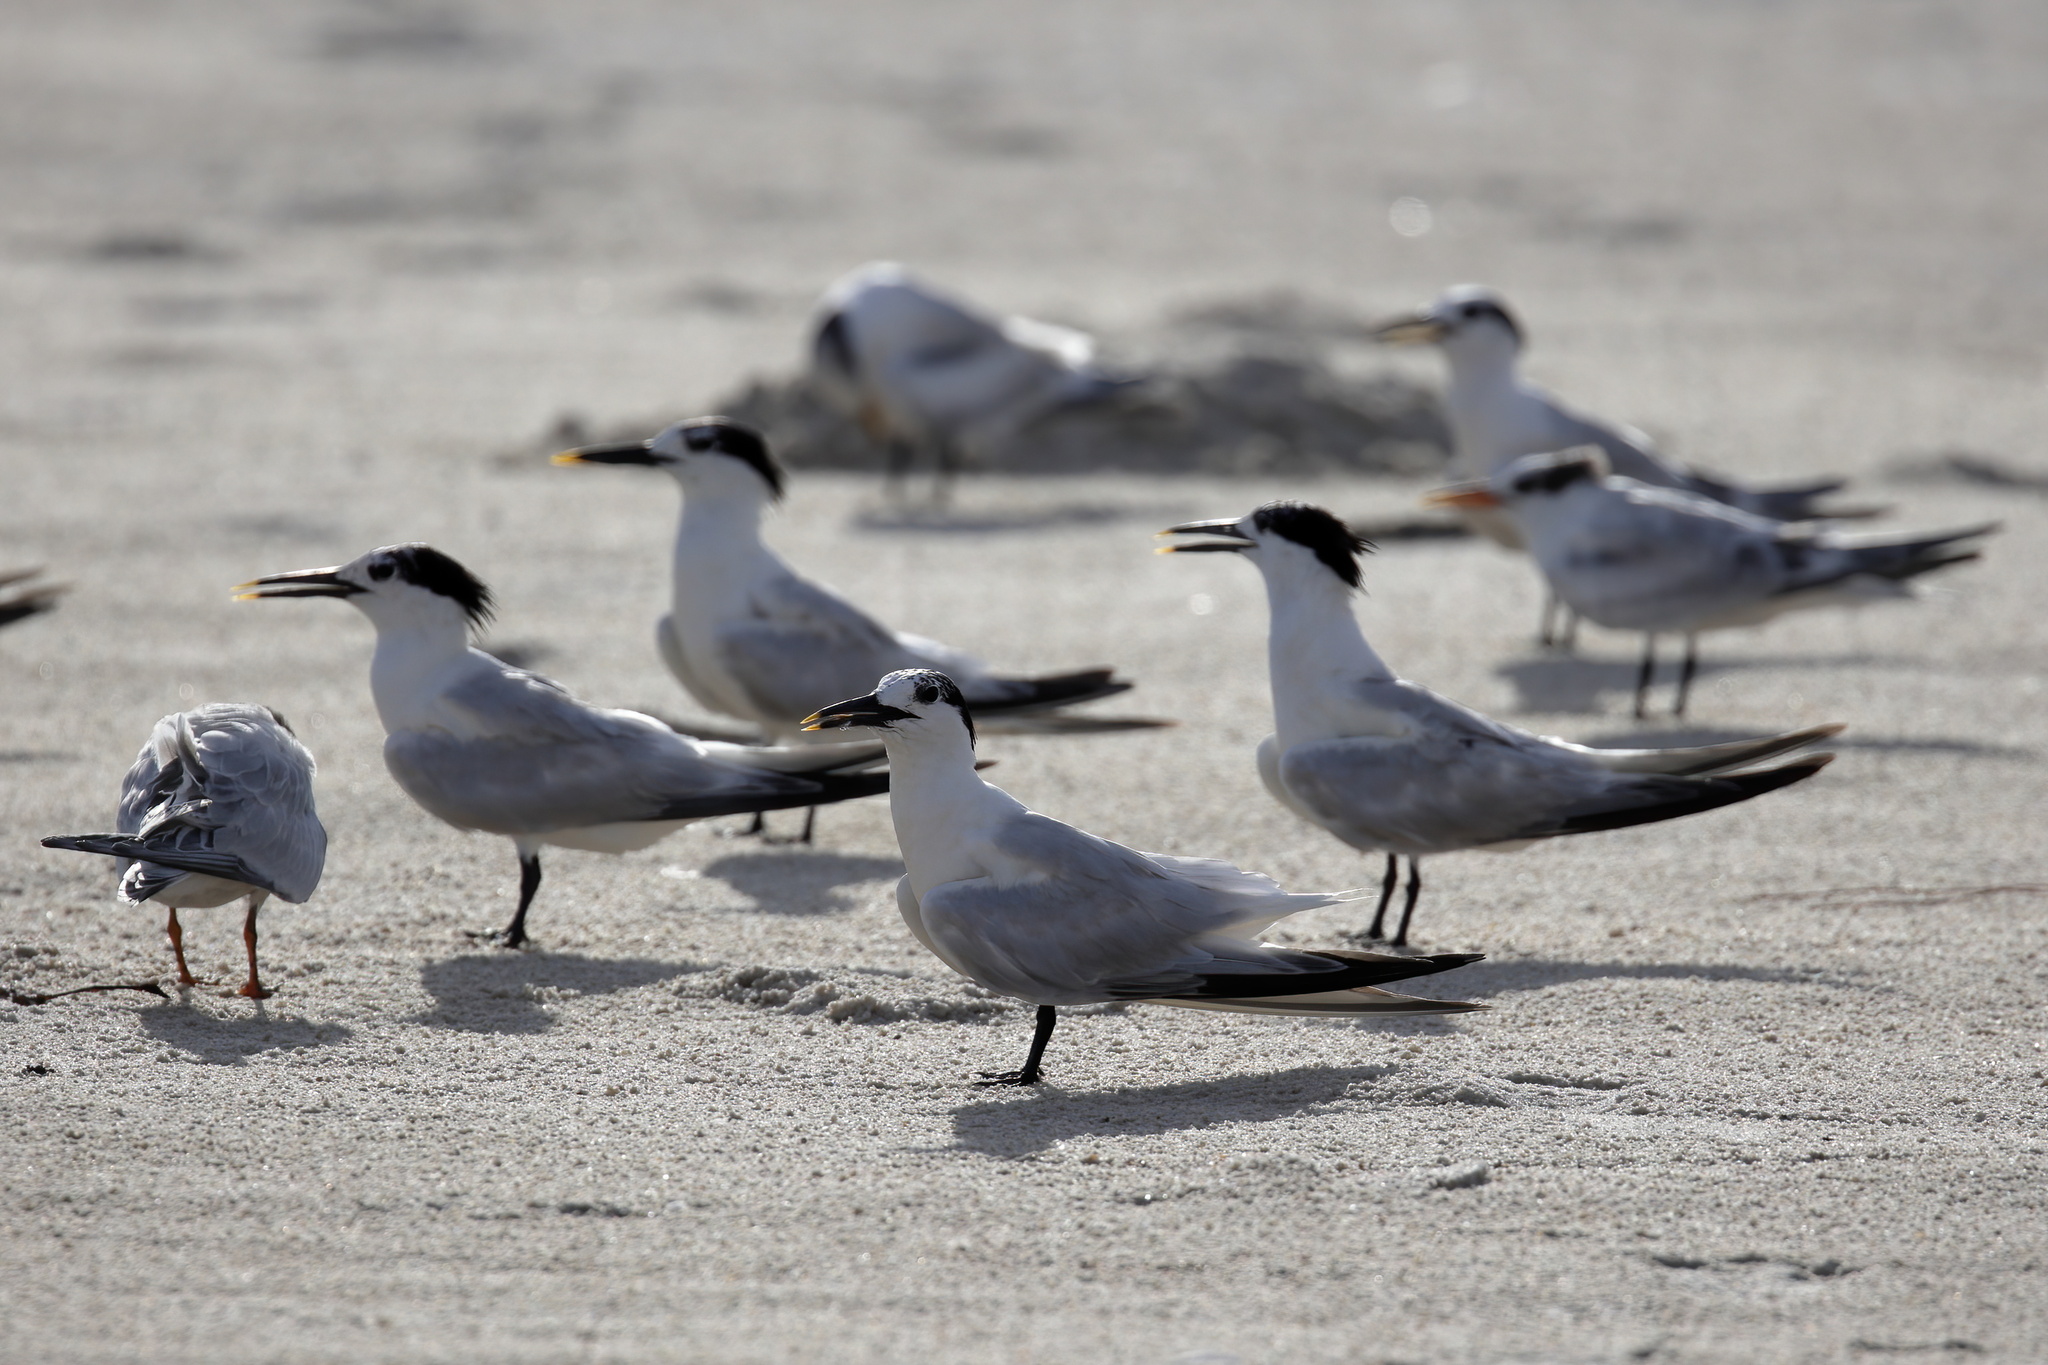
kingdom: Animalia
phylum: Chordata
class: Aves
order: Charadriiformes
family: Laridae
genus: Thalasseus
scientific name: Thalasseus sandvicensis
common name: Sandwich tern
